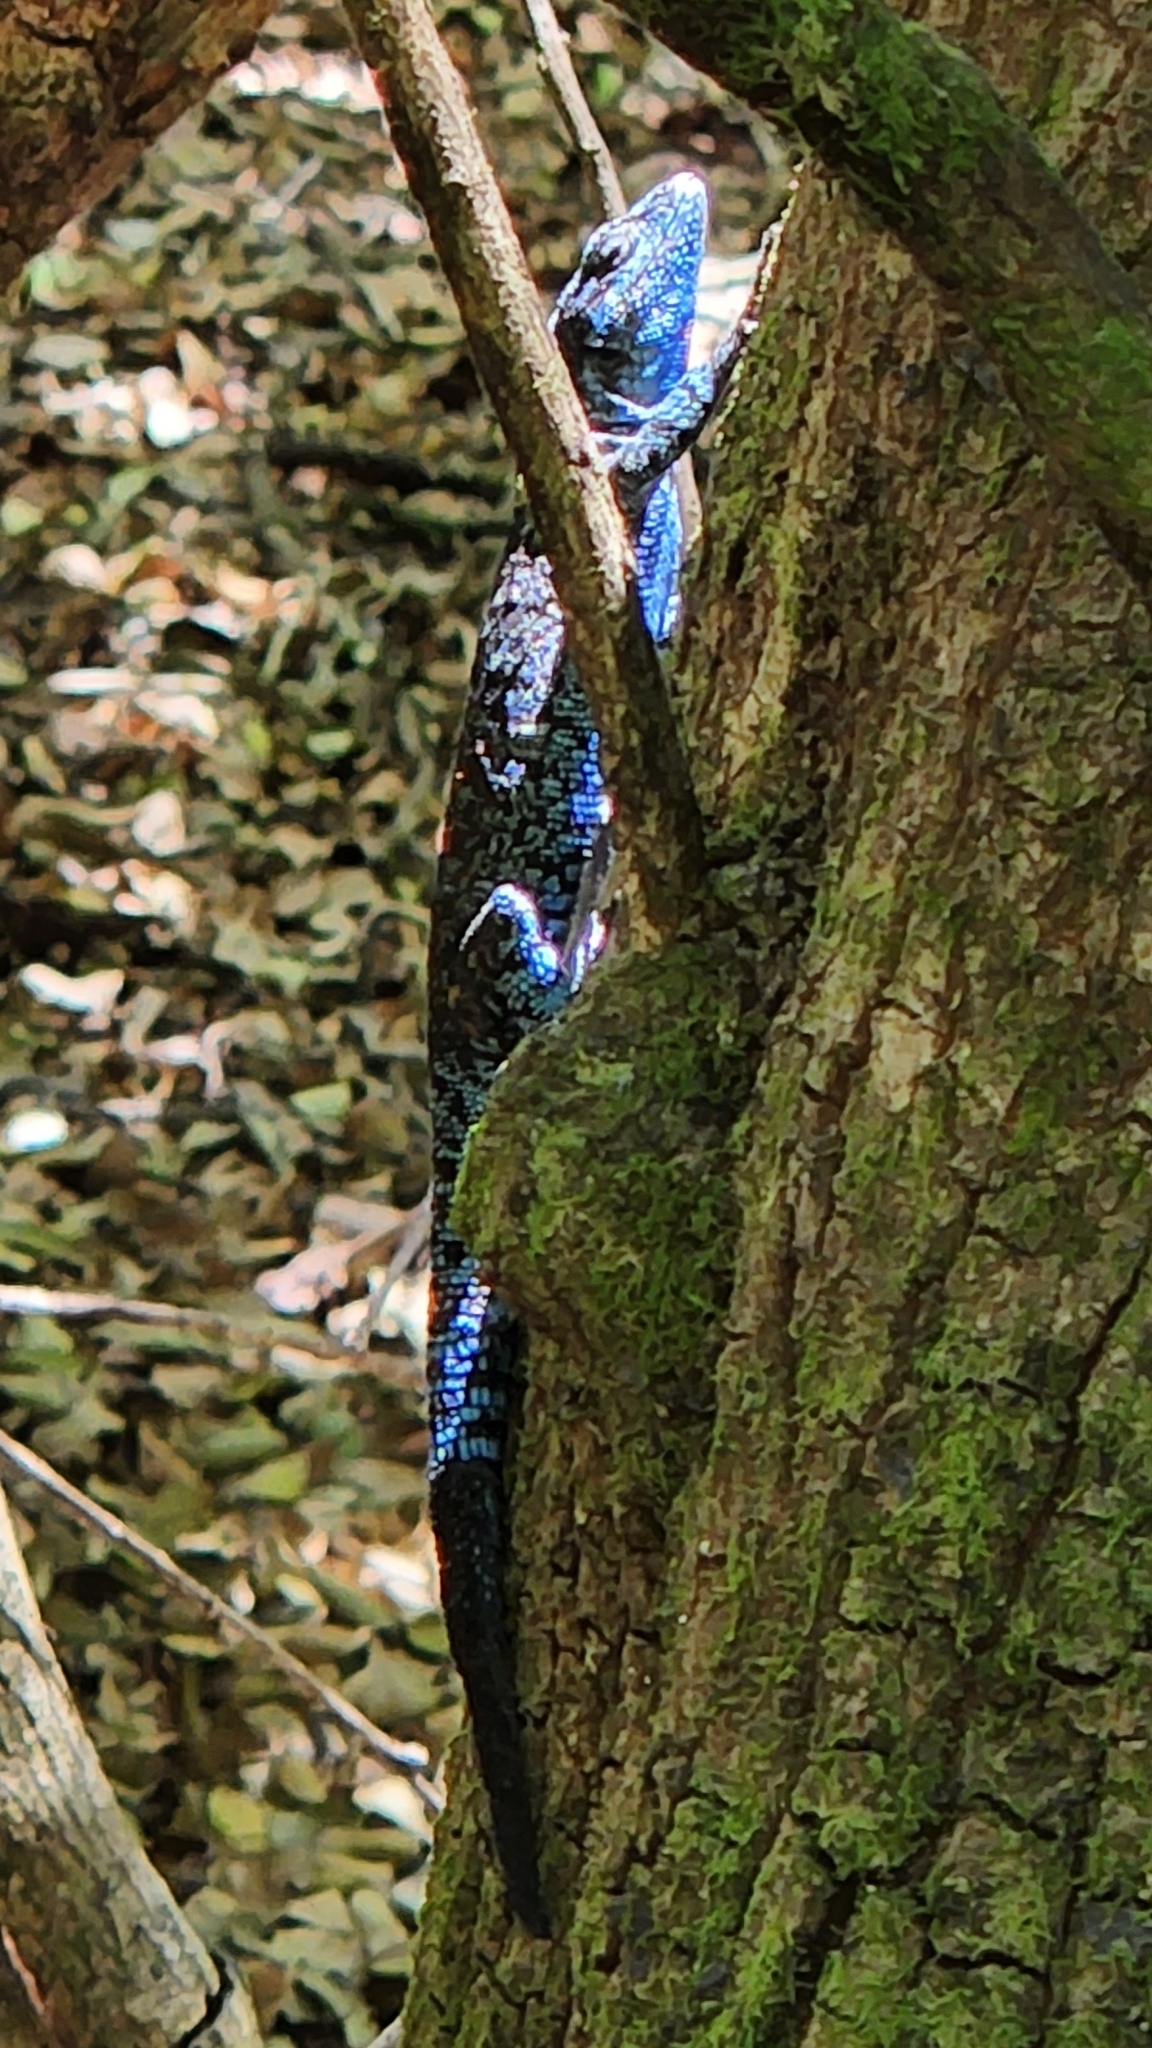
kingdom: Animalia
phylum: Chordata
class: Squamata
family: Phrynosomatidae
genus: Urosaurus
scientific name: Urosaurus auriculatus
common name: Socorro island tree lizard
